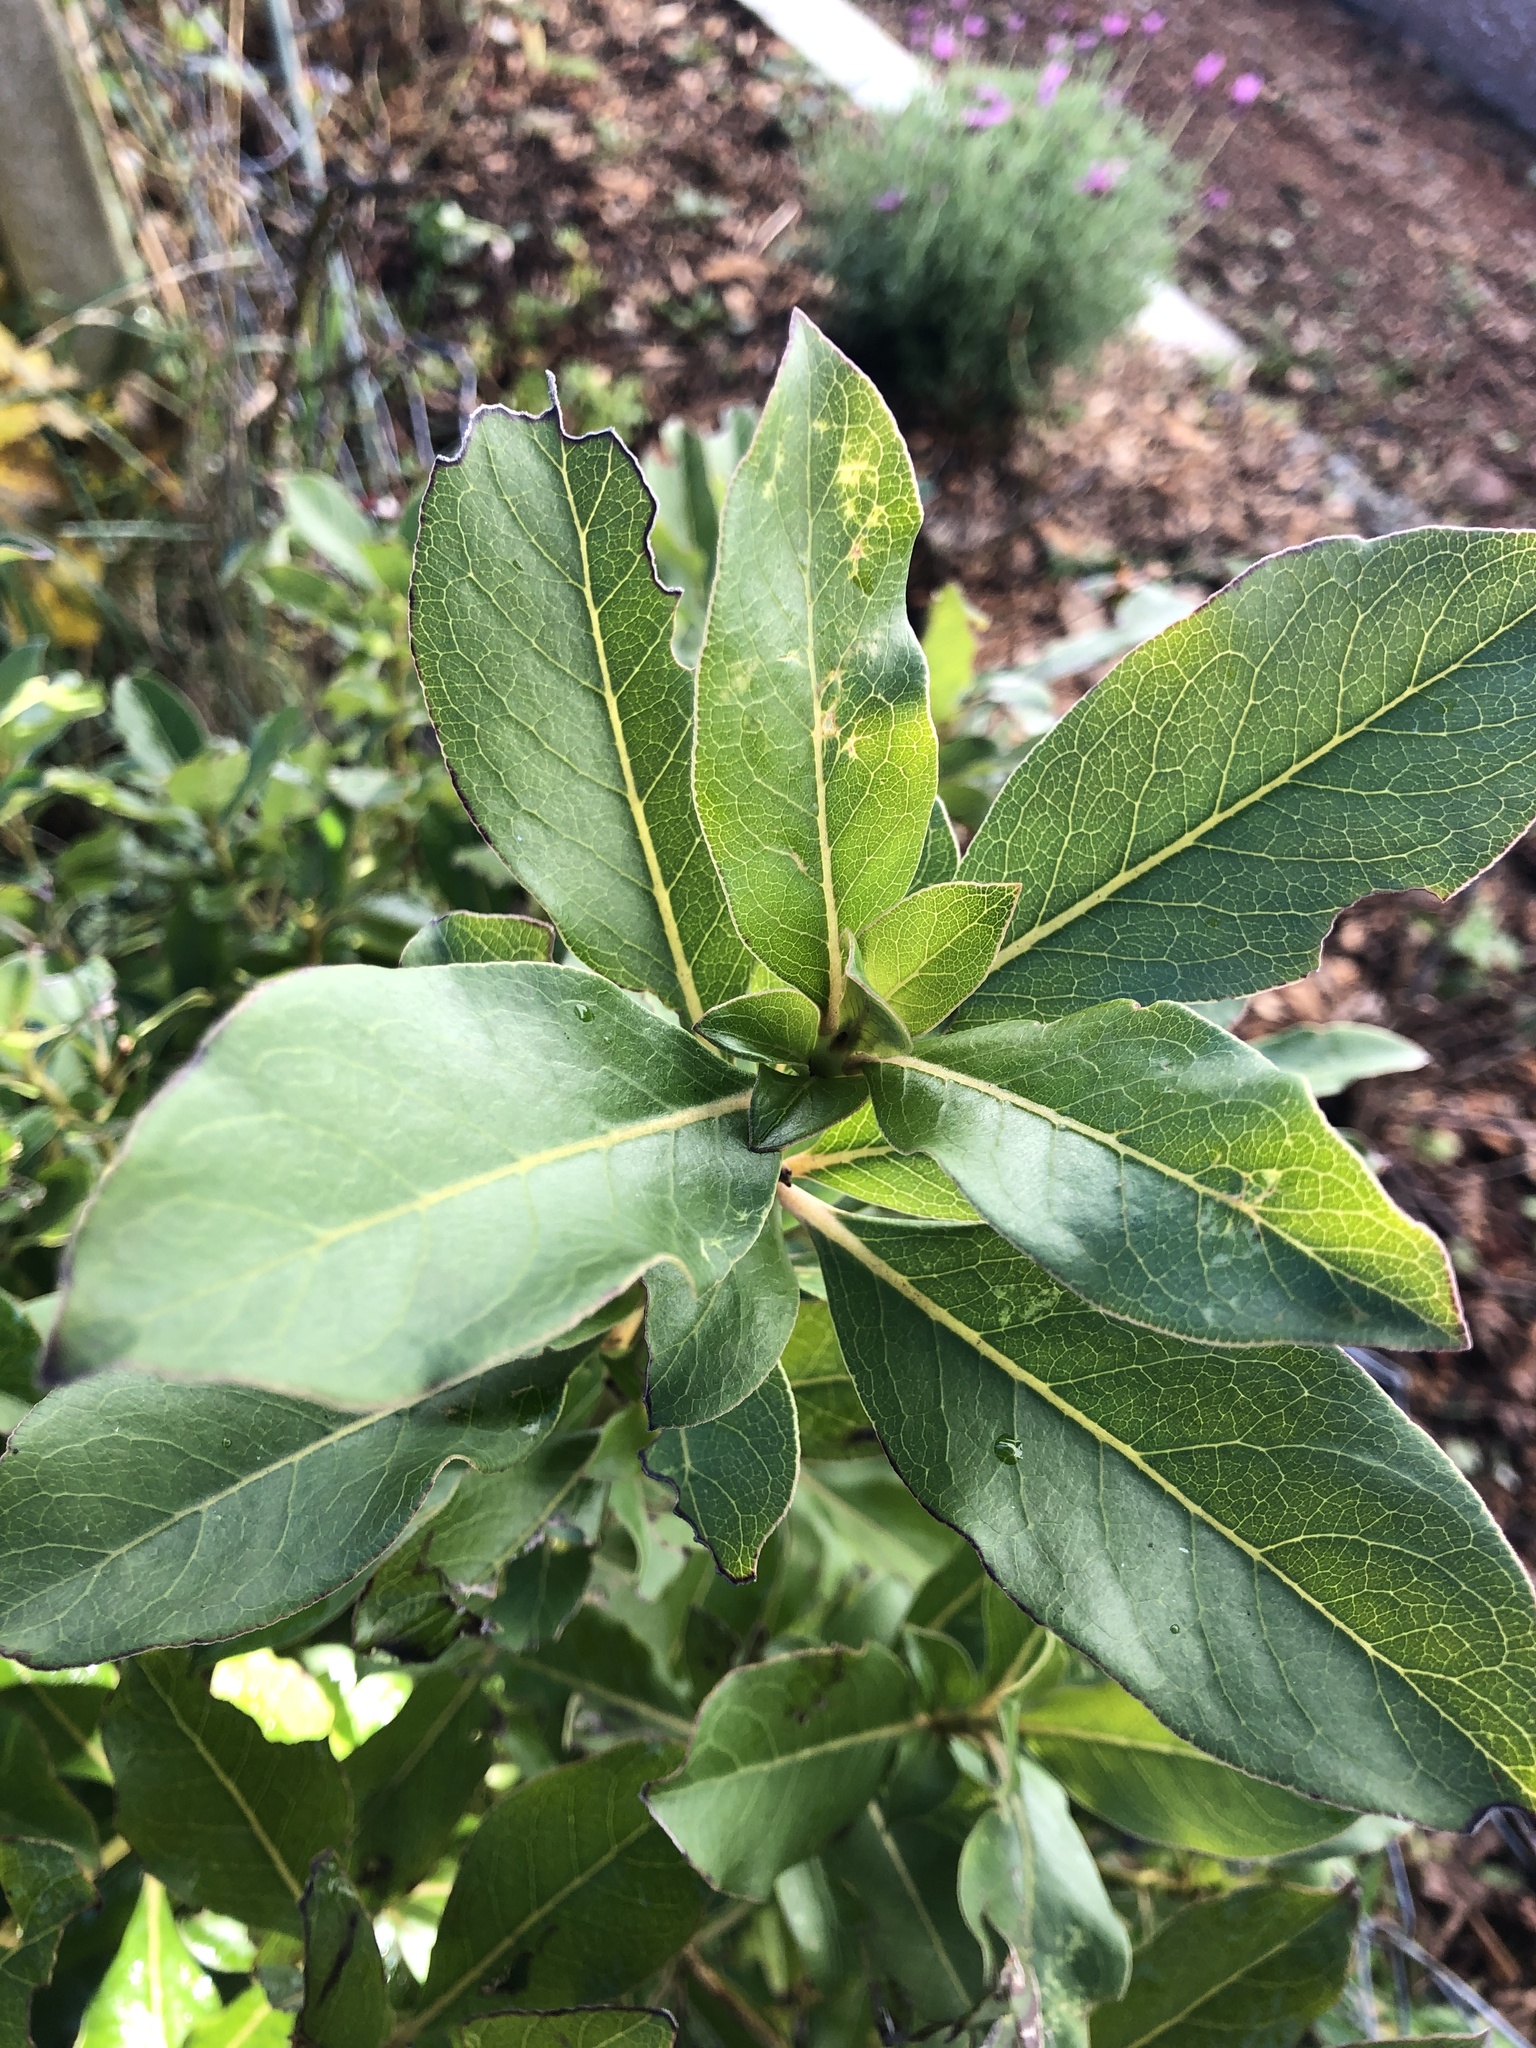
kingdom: Plantae
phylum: Tracheophyta
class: Magnoliopsida
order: Gentianales
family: Rubiaceae
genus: Coprosma
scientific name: Coprosma robusta
